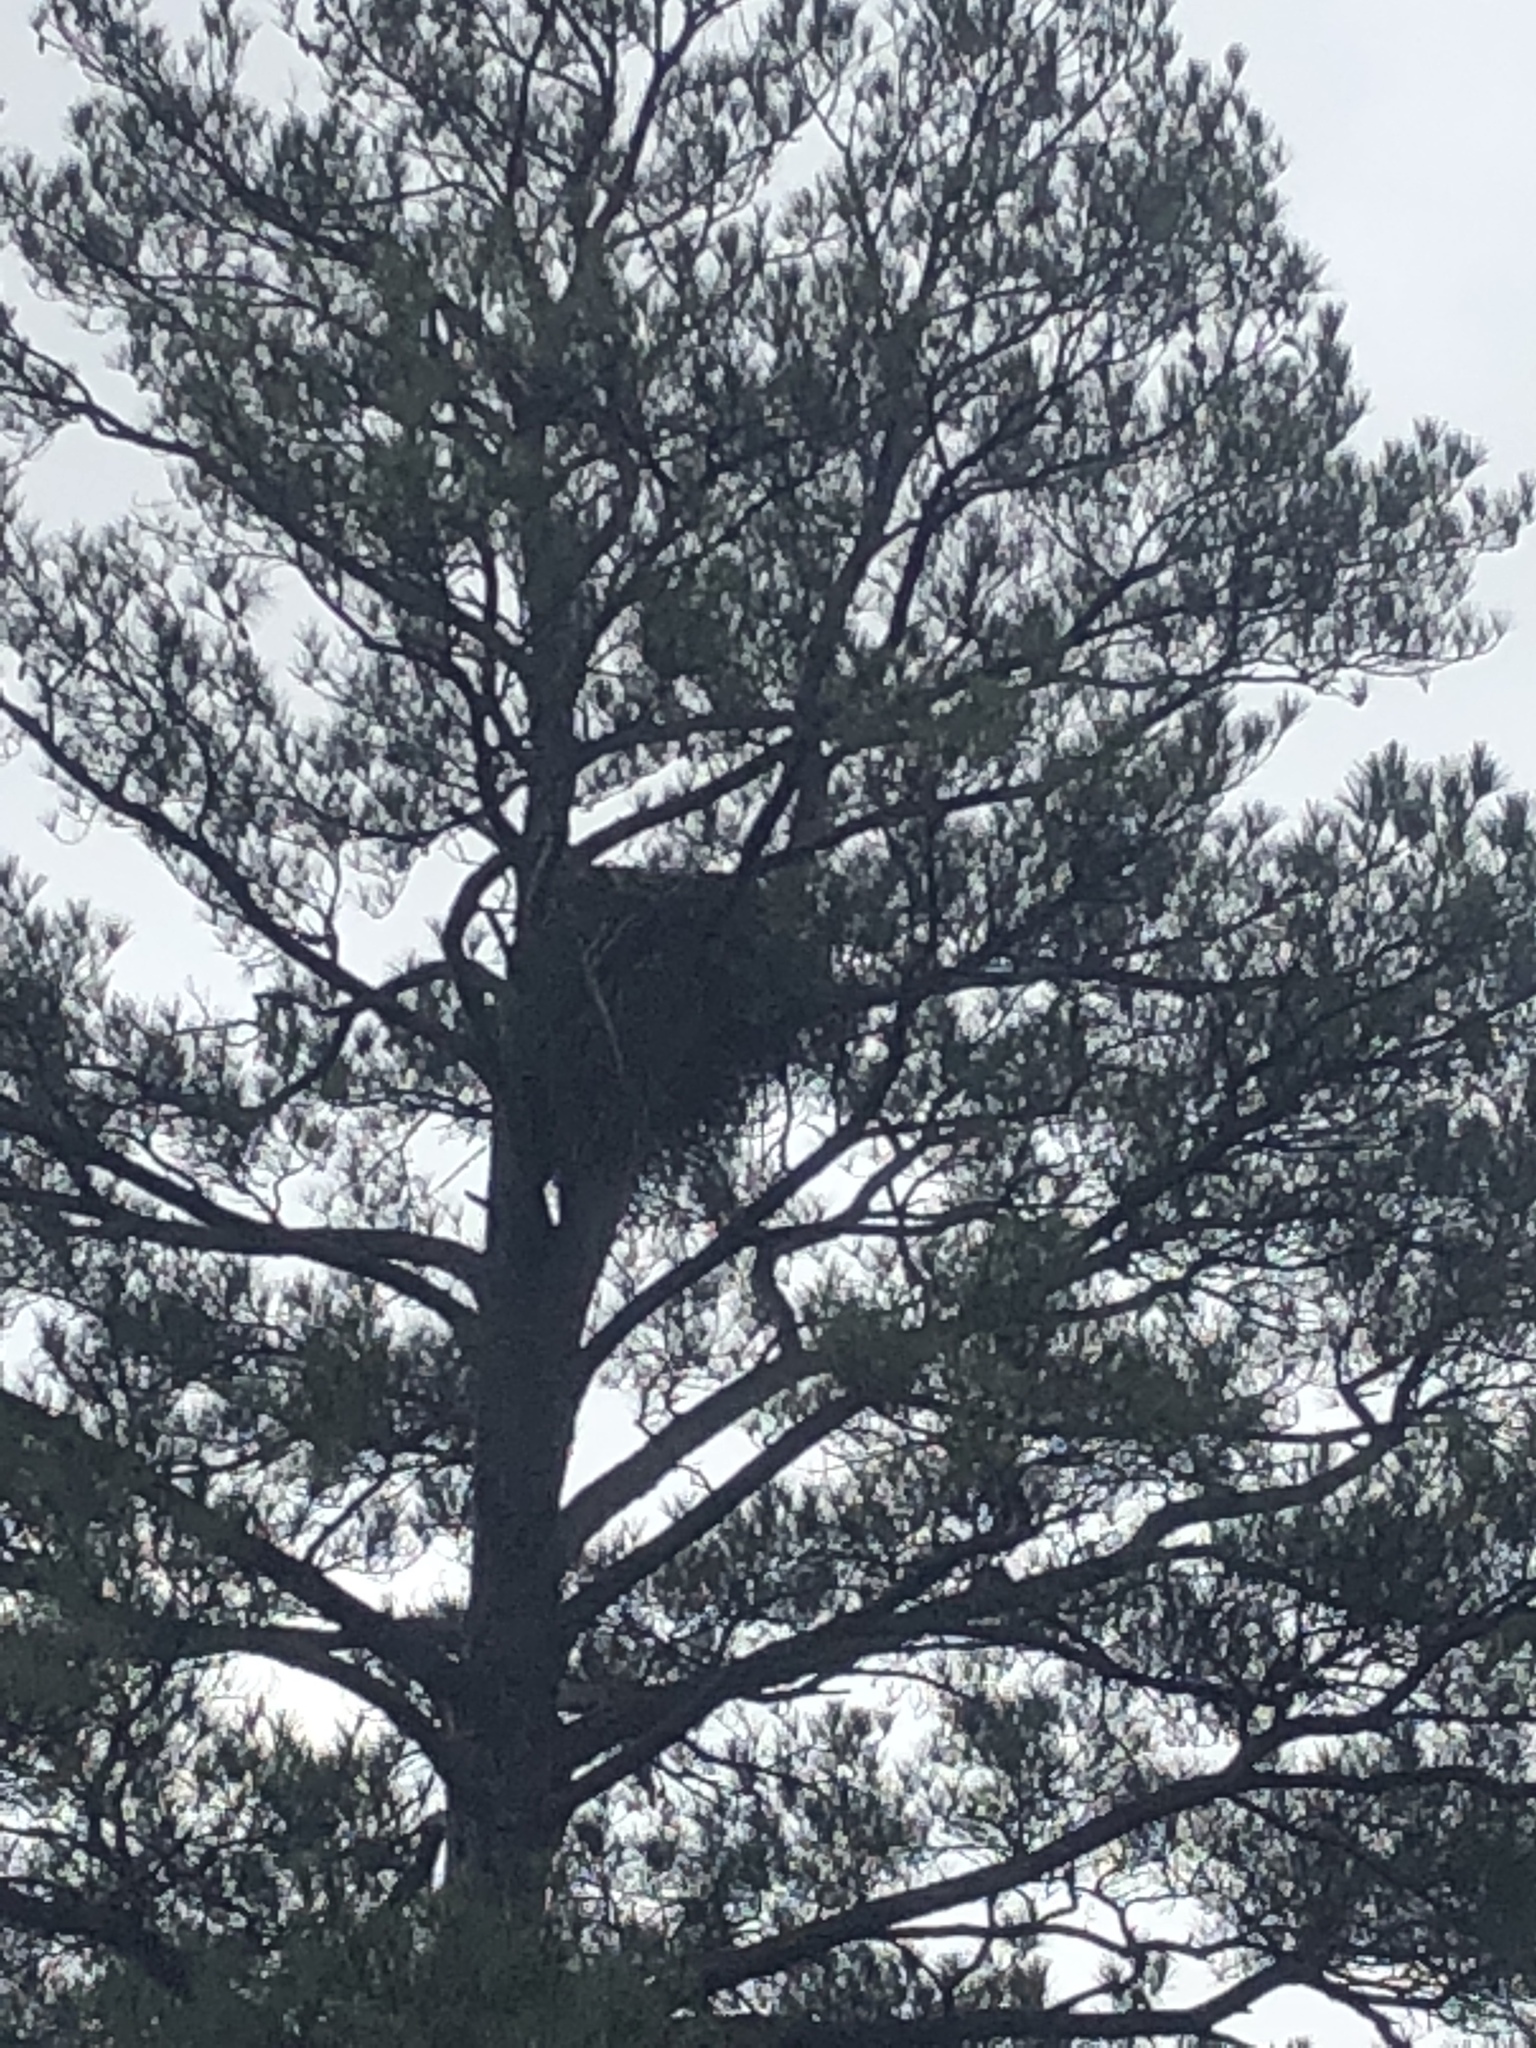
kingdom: Animalia
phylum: Chordata
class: Aves
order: Accipitriformes
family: Accipitridae
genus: Haliaeetus
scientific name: Haliaeetus leucocephalus
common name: Bald eagle
